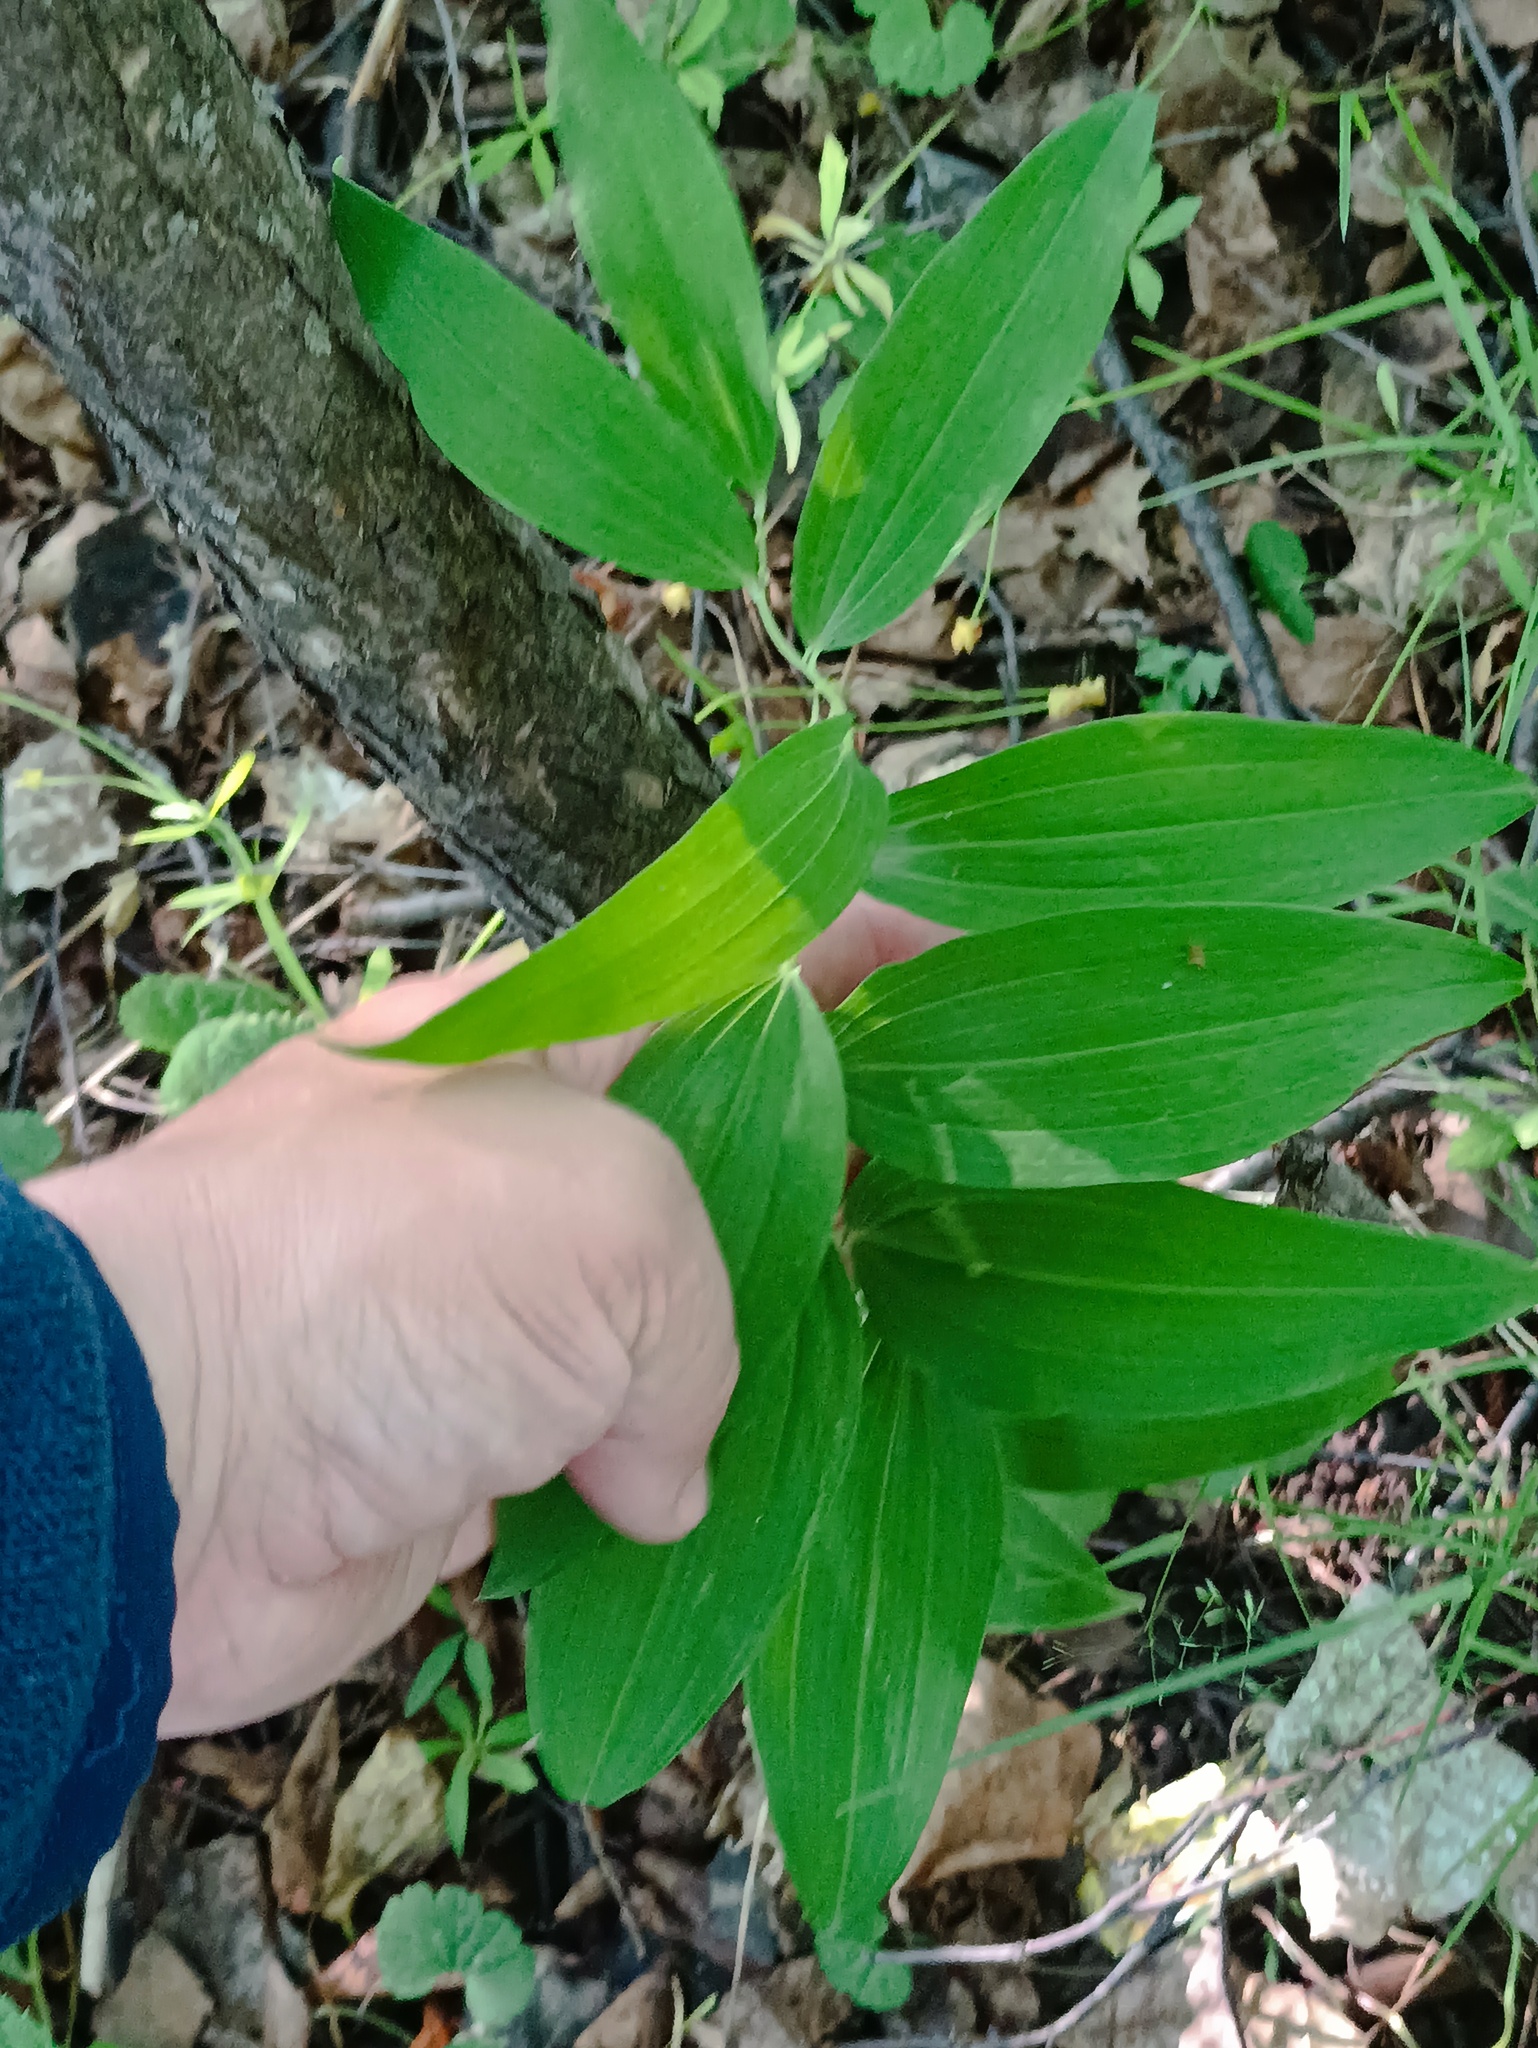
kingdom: Plantae
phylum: Tracheophyta
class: Liliopsida
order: Asparagales
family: Asparagaceae
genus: Polygonatum
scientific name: Polygonatum multiflorum
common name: Solomon's-seal
